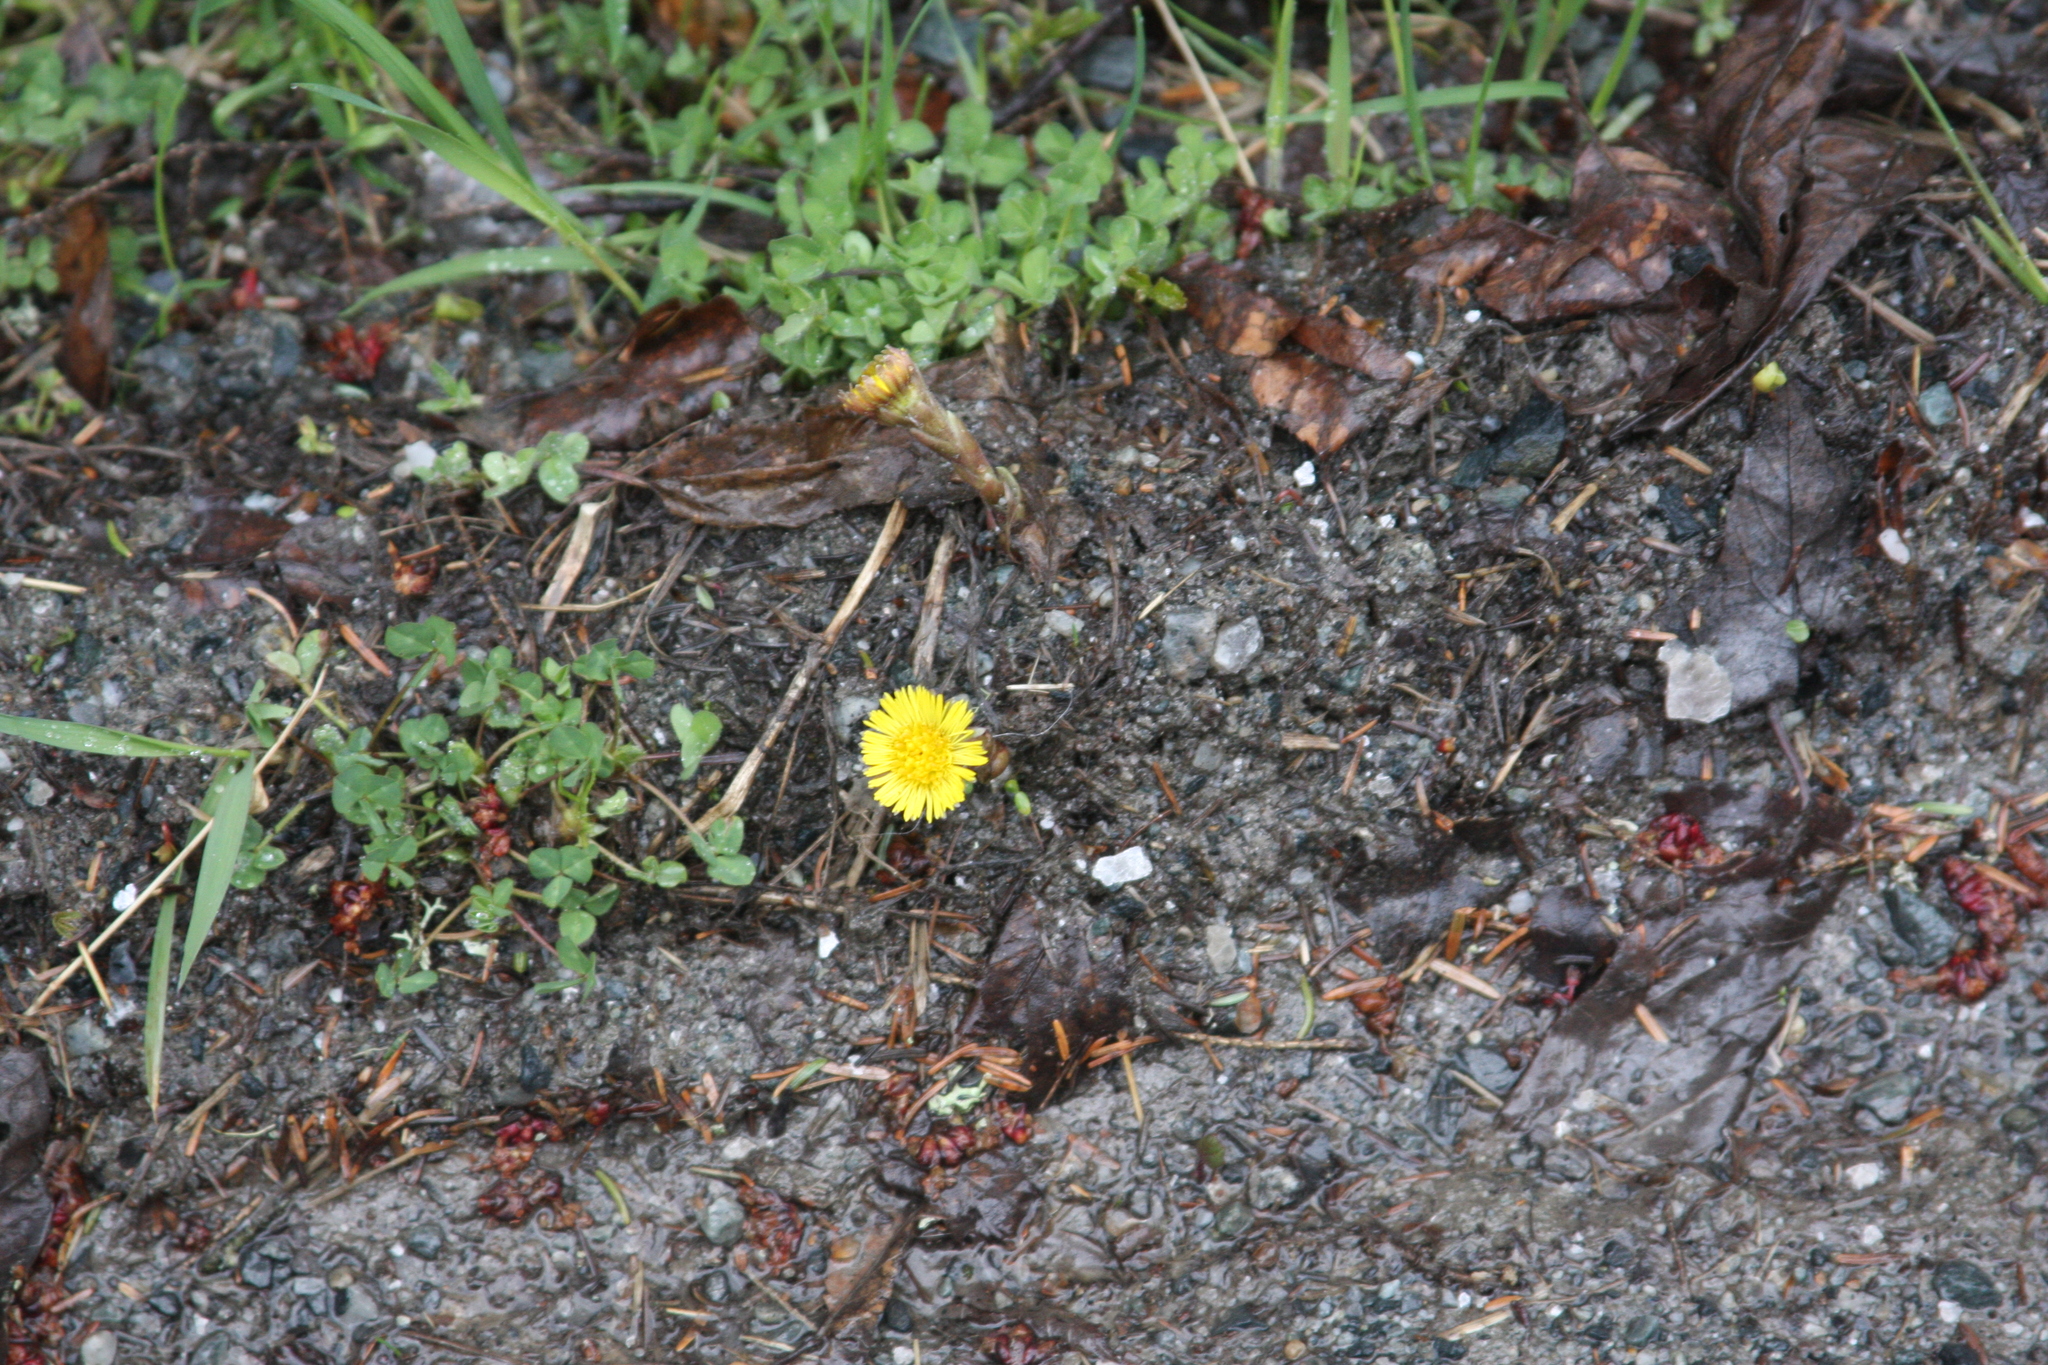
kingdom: Plantae
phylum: Tracheophyta
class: Magnoliopsida
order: Asterales
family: Asteraceae
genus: Tussilago
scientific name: Tussilago farfara
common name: Coltsfoot
